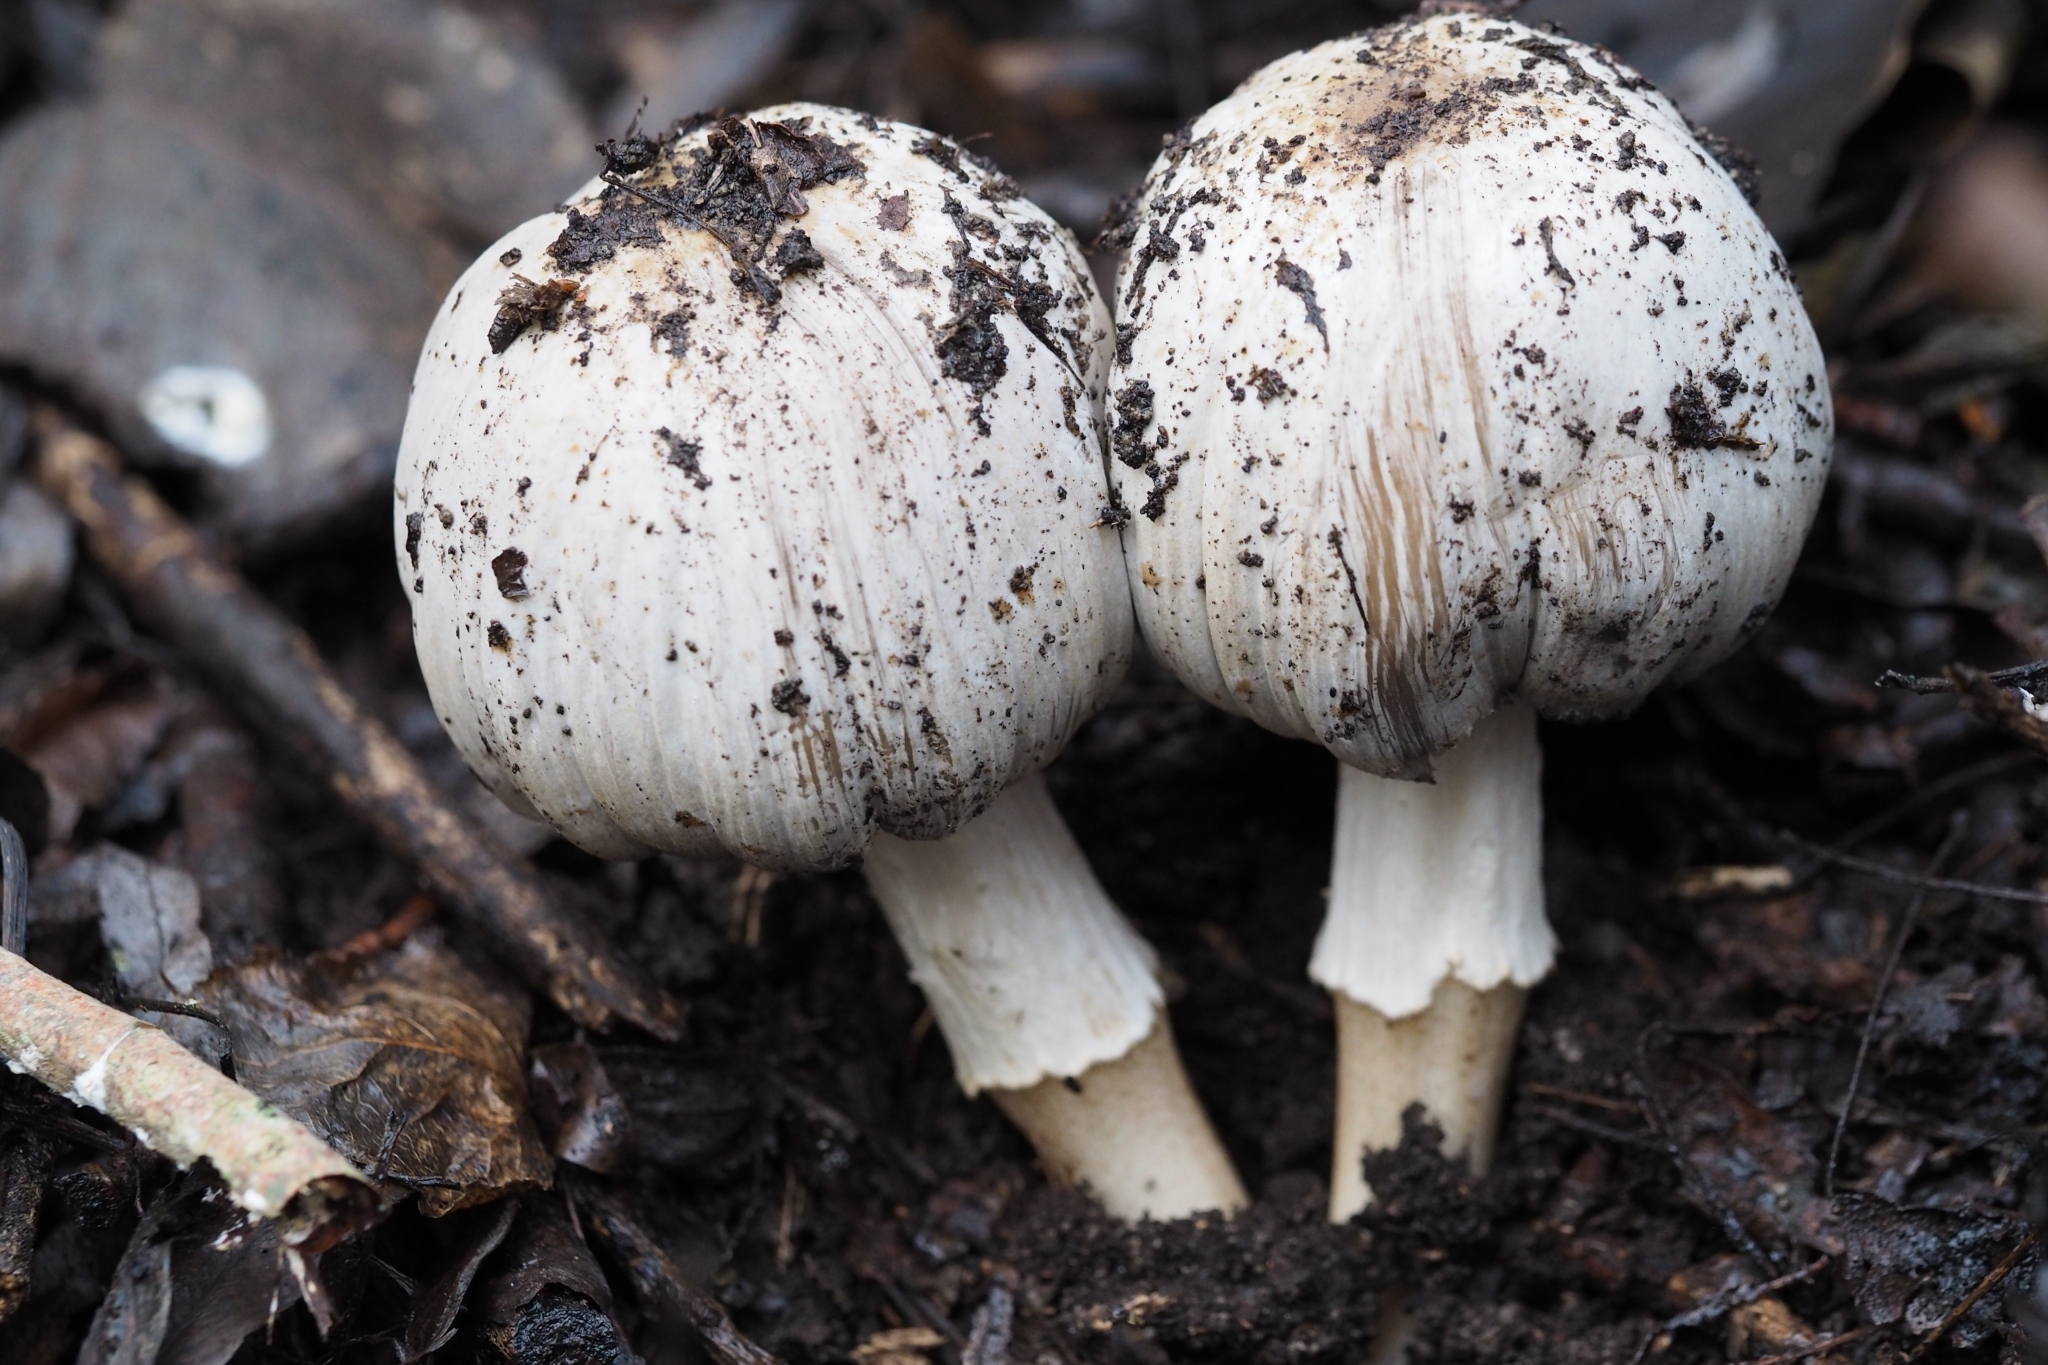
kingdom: Fungi
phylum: Basidiomycota
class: Agaricomycetes
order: Agaricales
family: Psathyrellaceae
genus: Coprinopsis
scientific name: Coprinopsis atramentaria
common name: Common ink-cap
